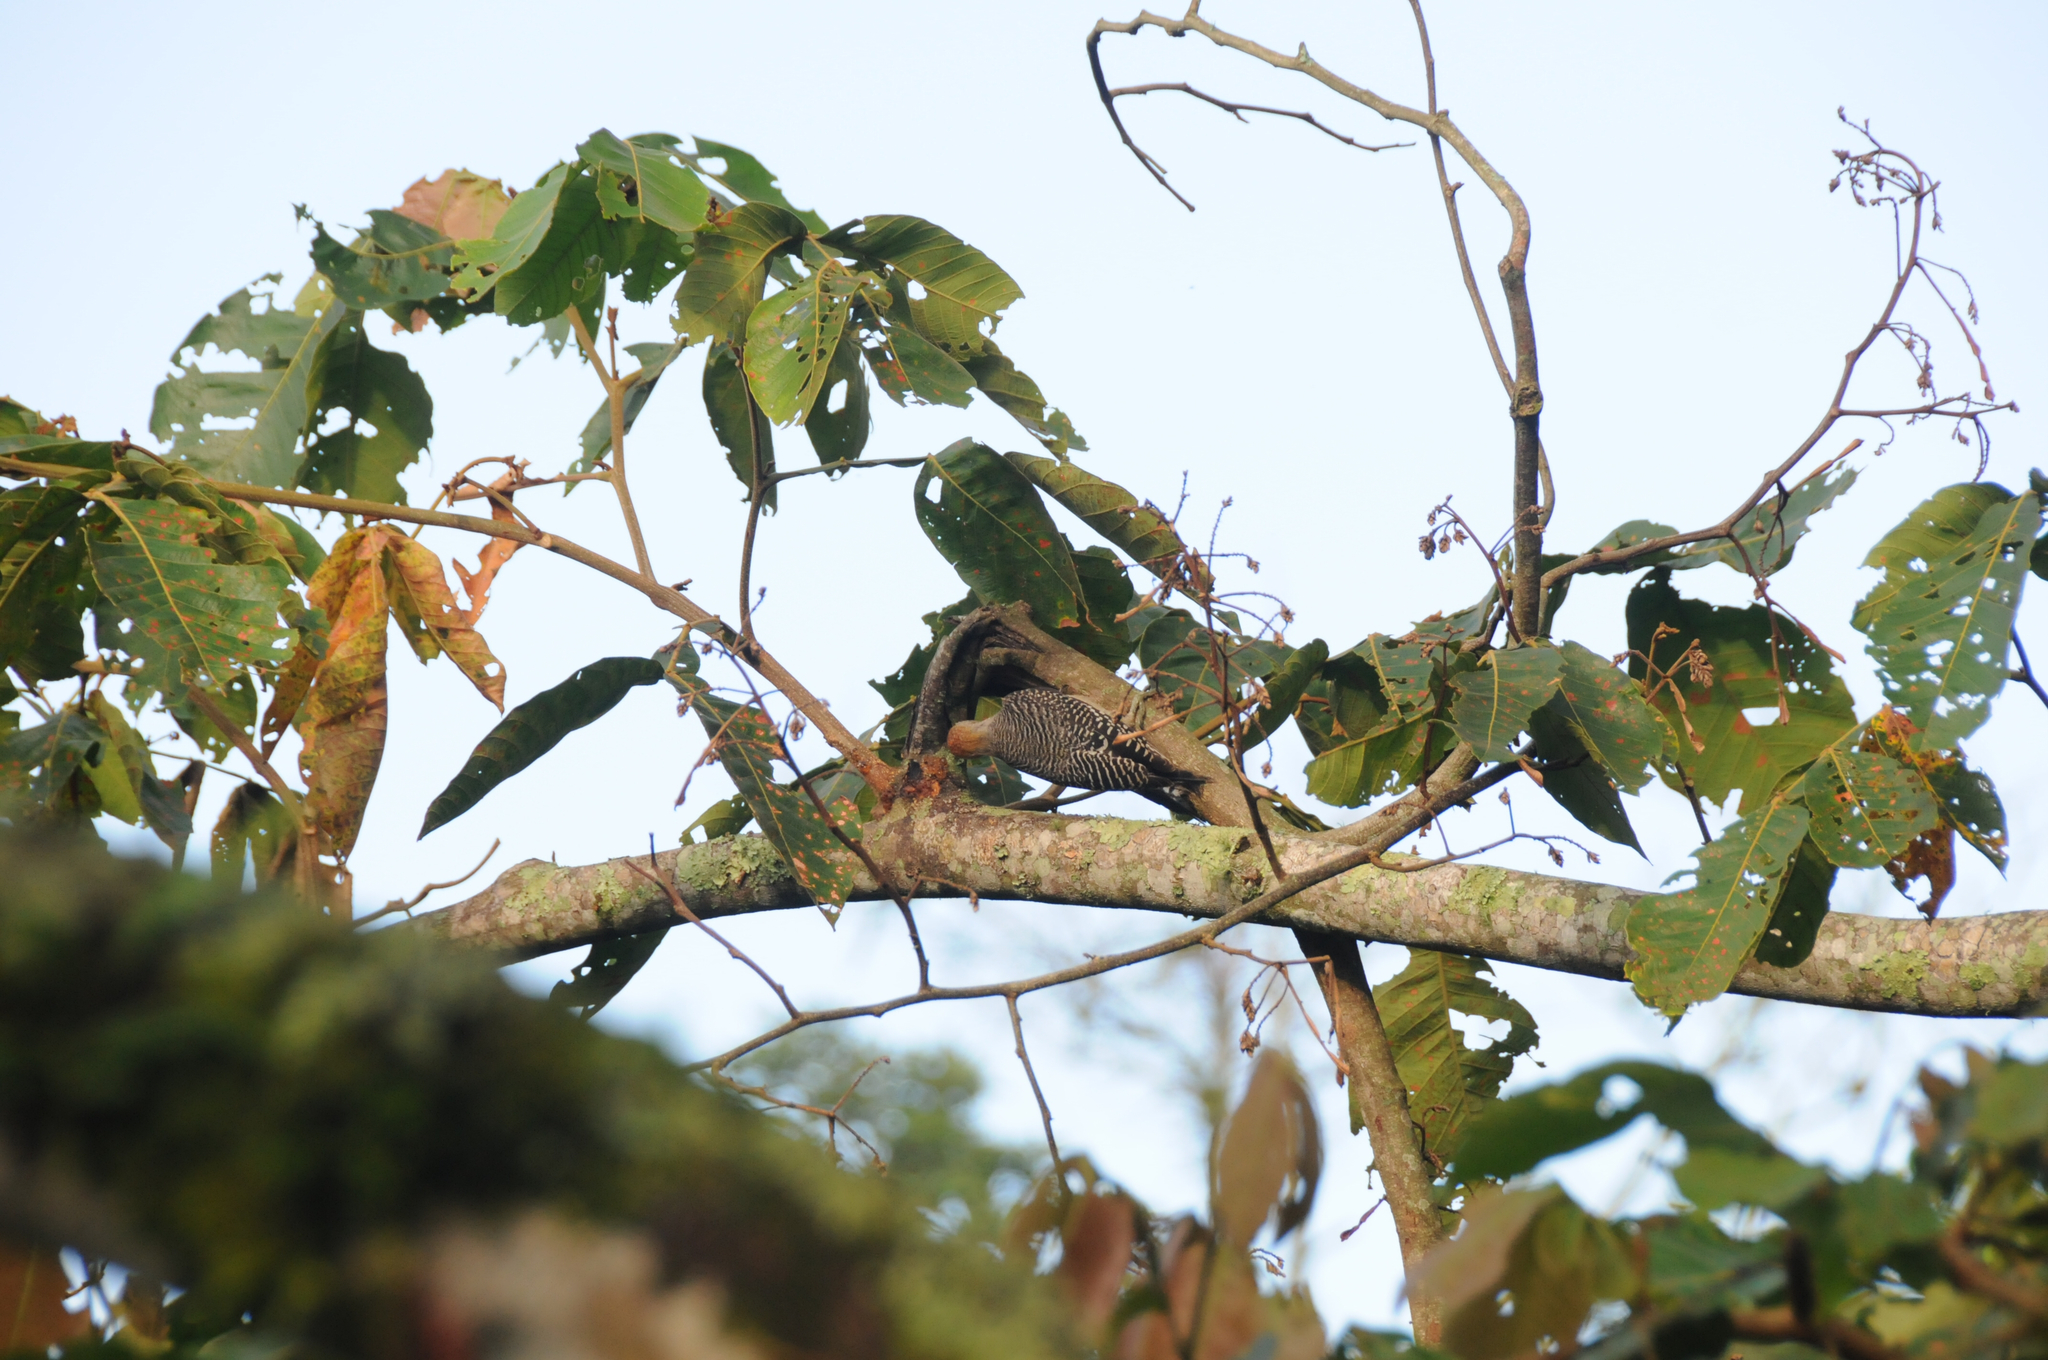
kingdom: Animalia
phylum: Chordata
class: Aves
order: Piciformes
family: Picidae
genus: Melanerpes
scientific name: Melanerpes aurifrons
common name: Golden-fronted woodpecker
